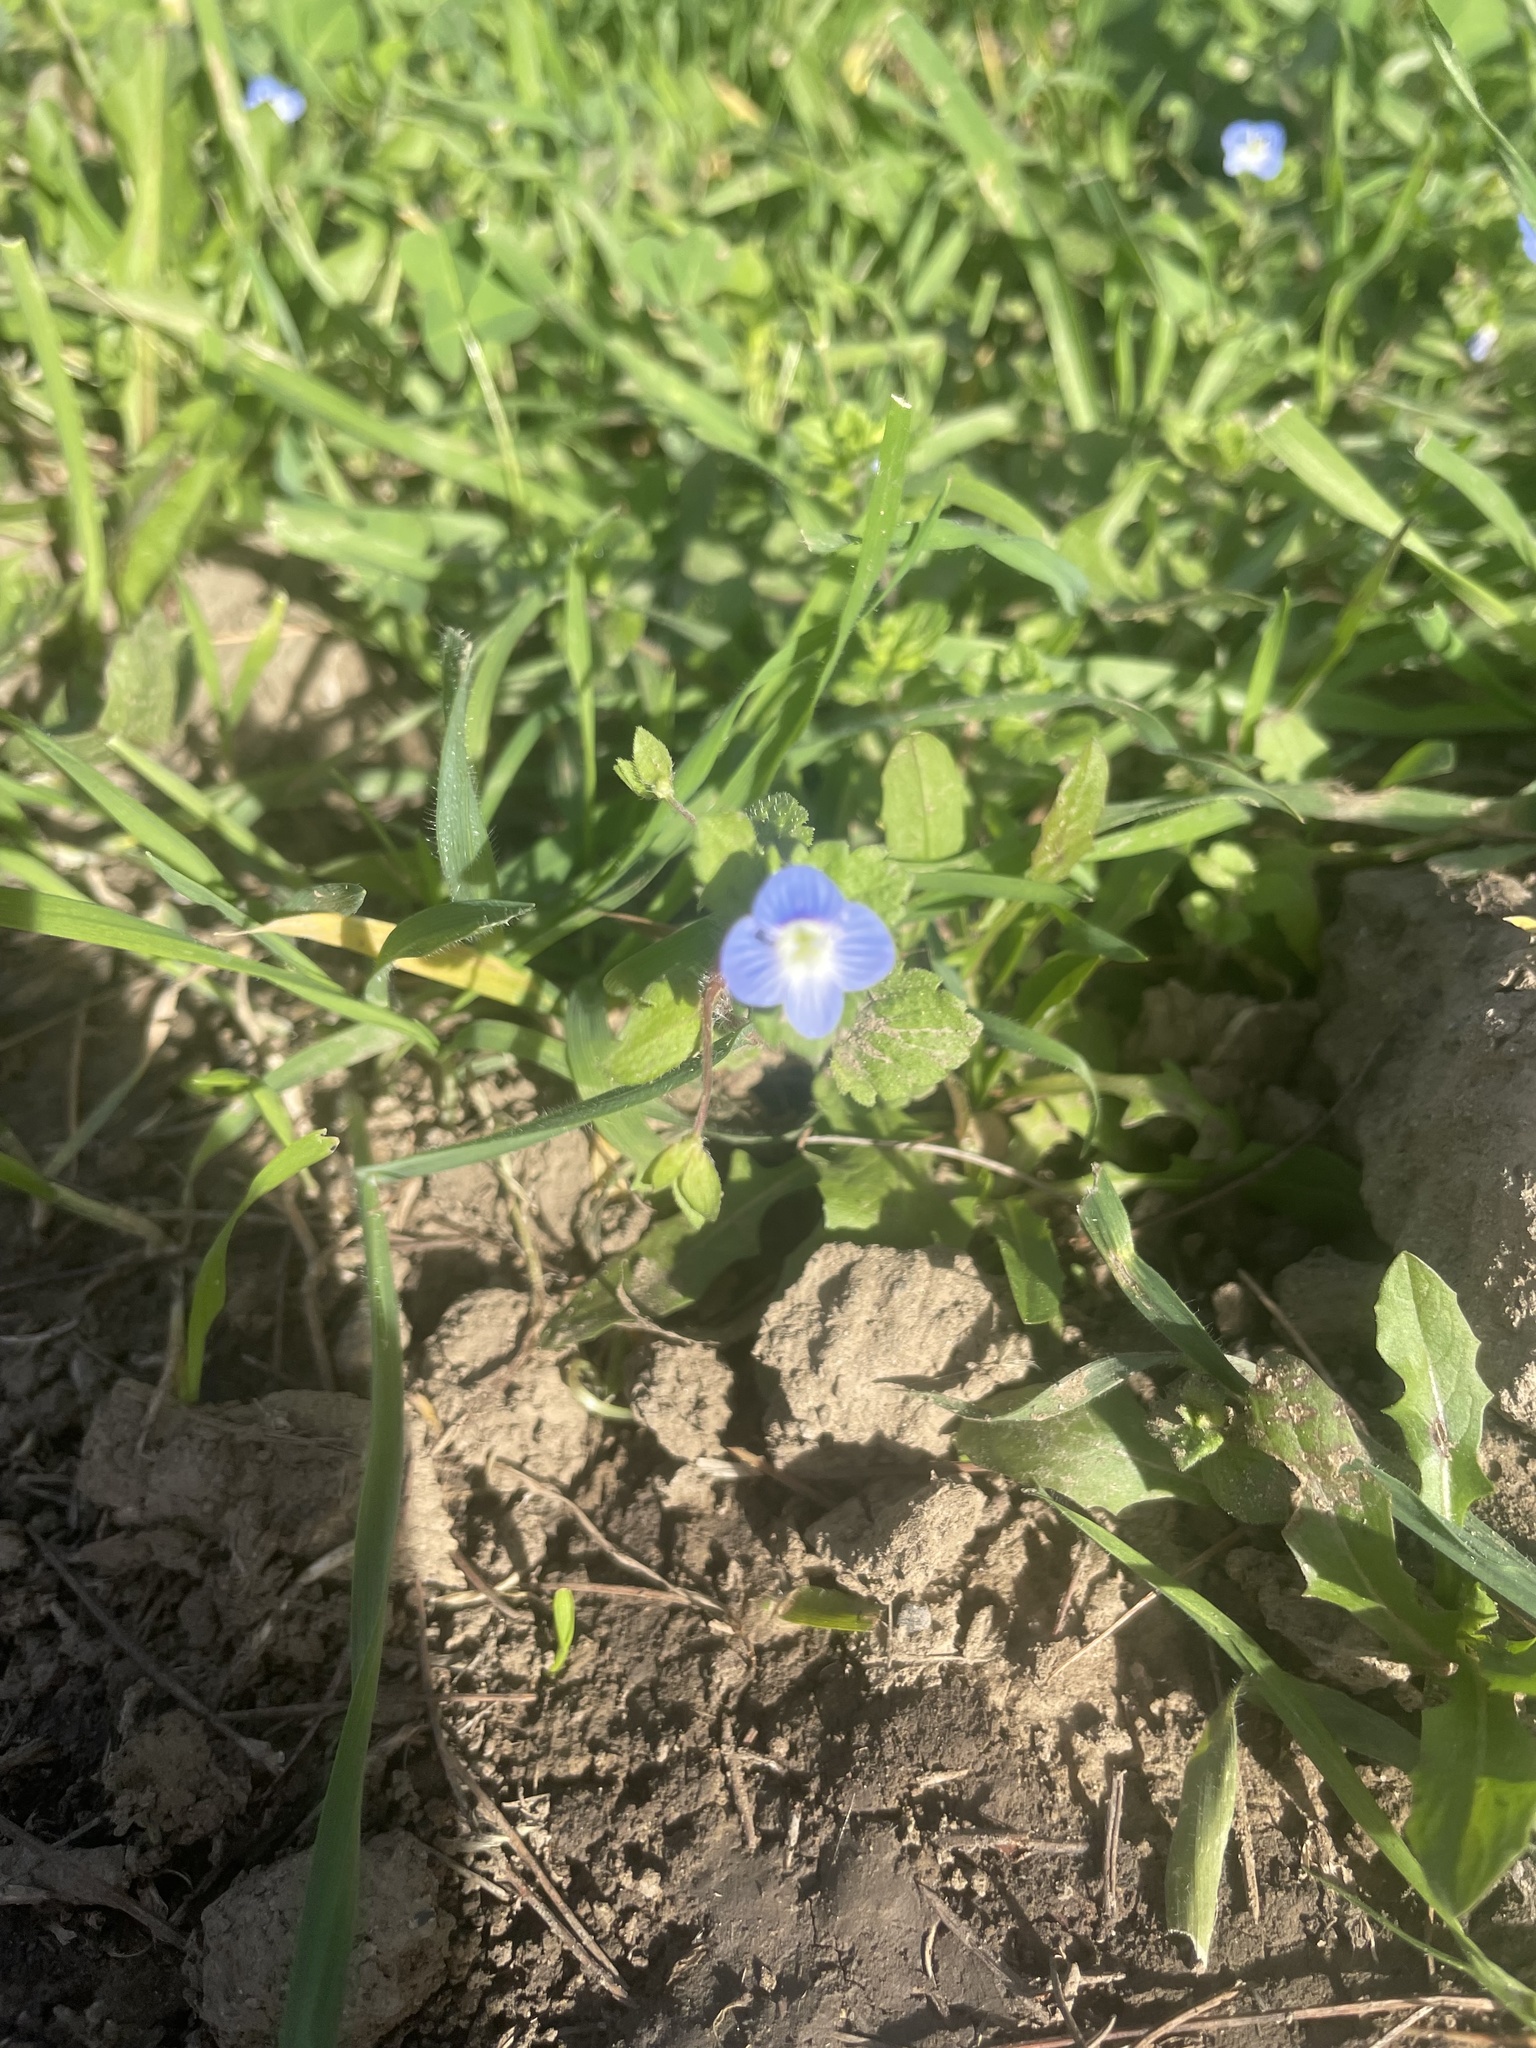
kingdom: Plantae
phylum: Tracheophyta
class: Magnoliopsida
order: Lamiales
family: Plantaginaceae
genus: Veronica
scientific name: Veronica persica
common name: Common field-speedwell
